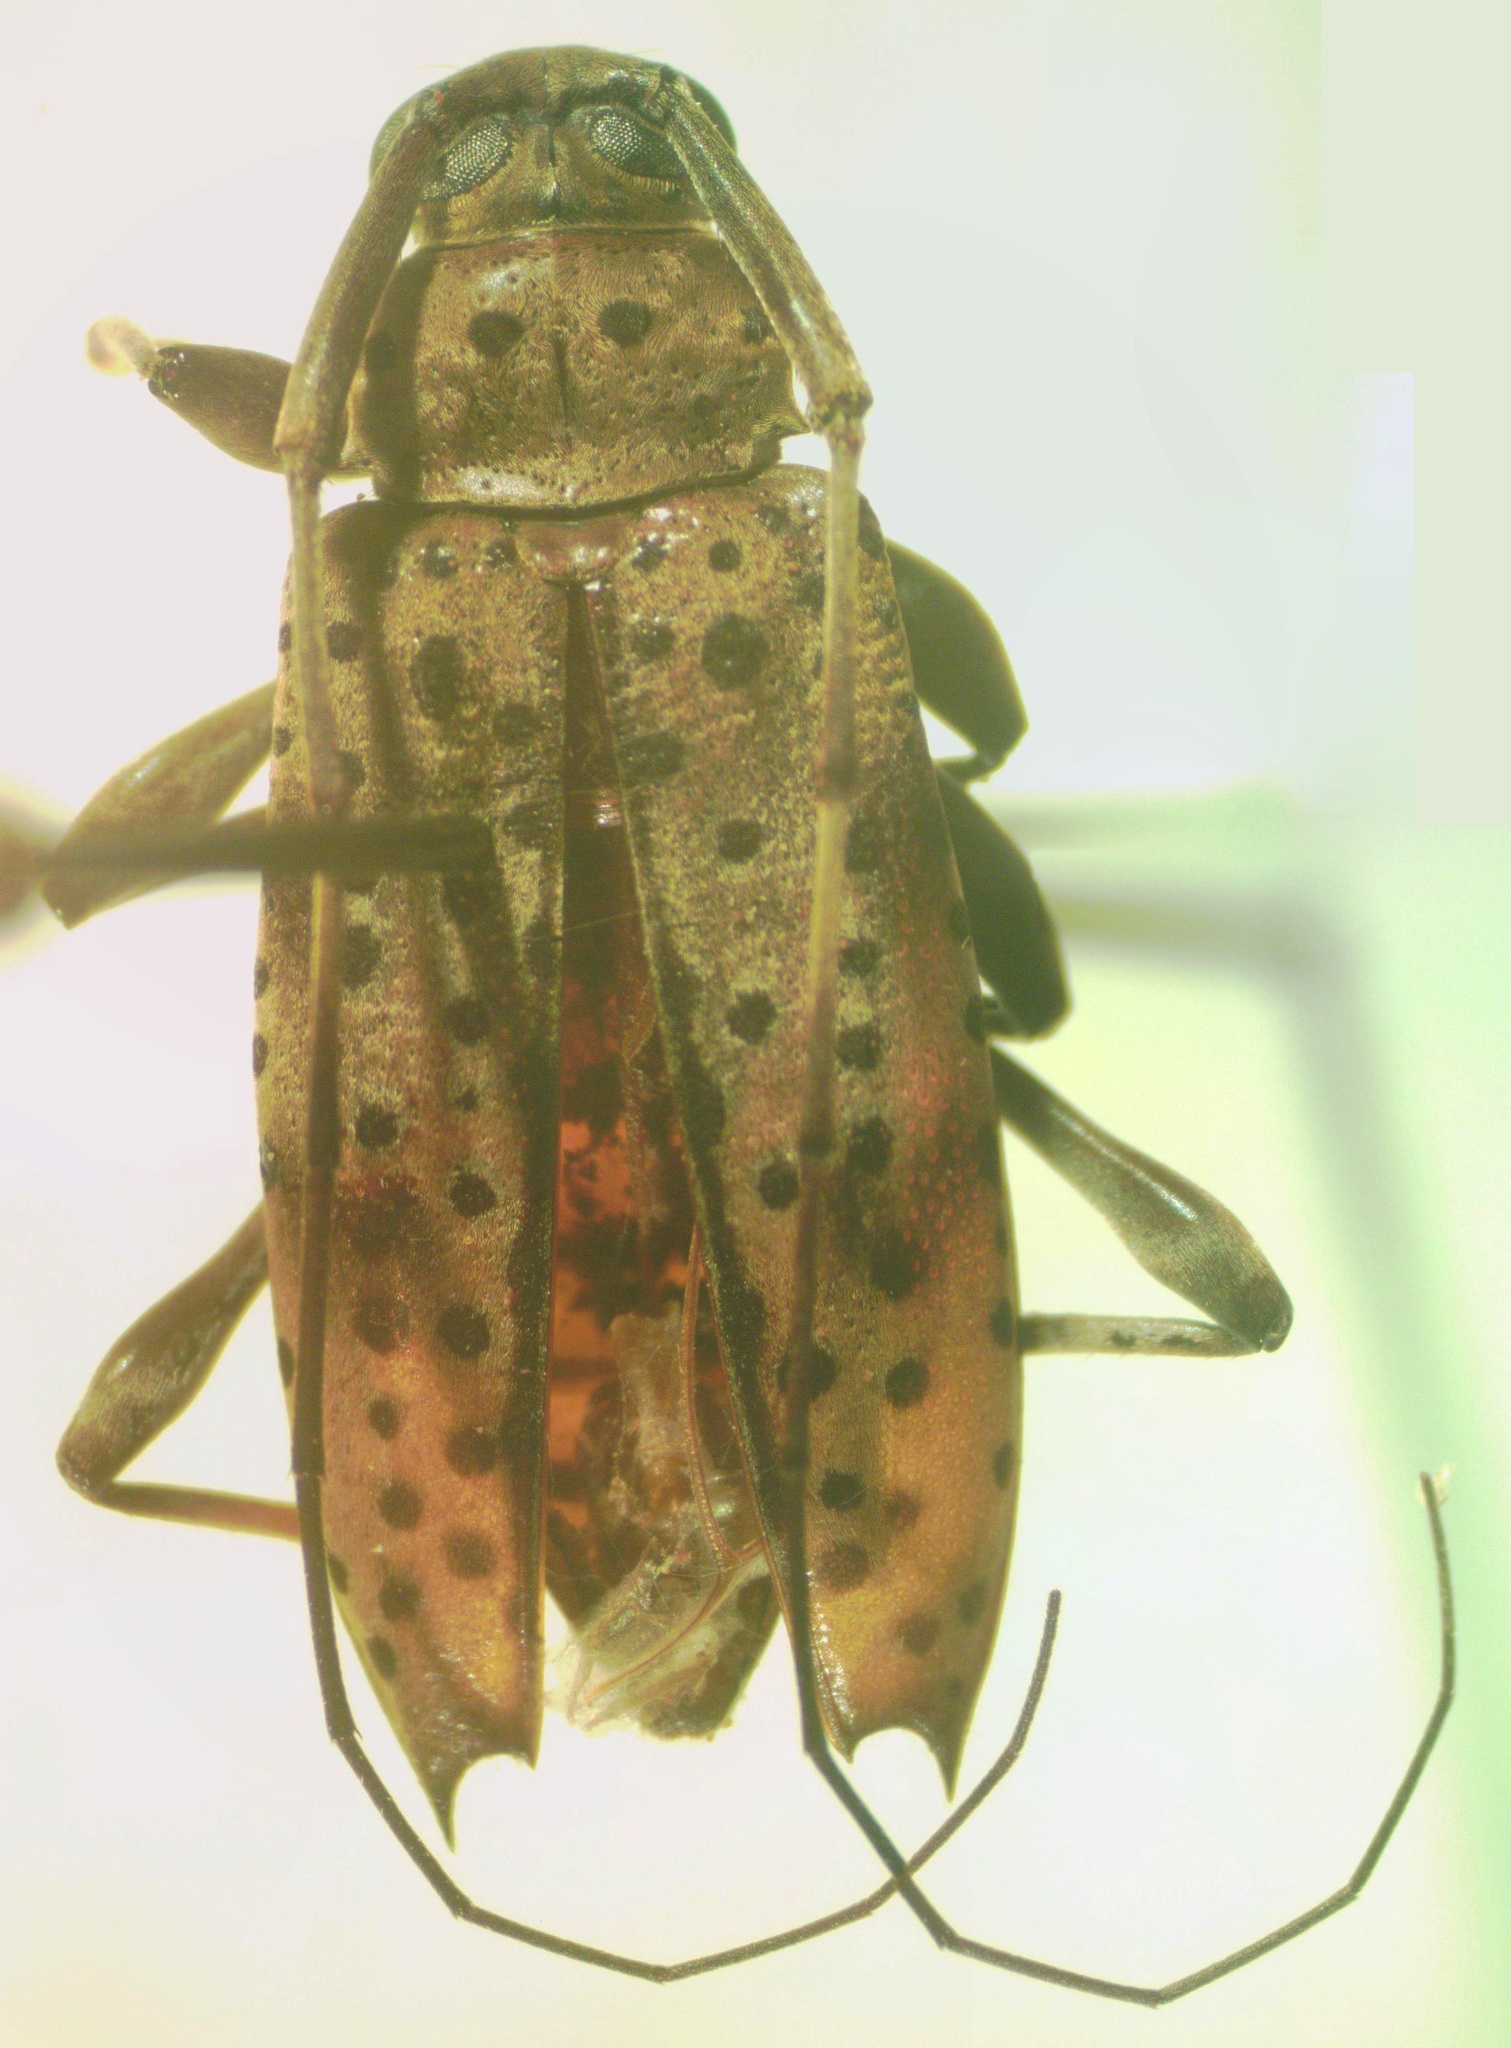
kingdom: Animalia
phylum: Arthropoda
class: Insecta
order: Coleoptera
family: Cerambycidae
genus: Hyperplatys
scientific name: Hyperplatys argus
